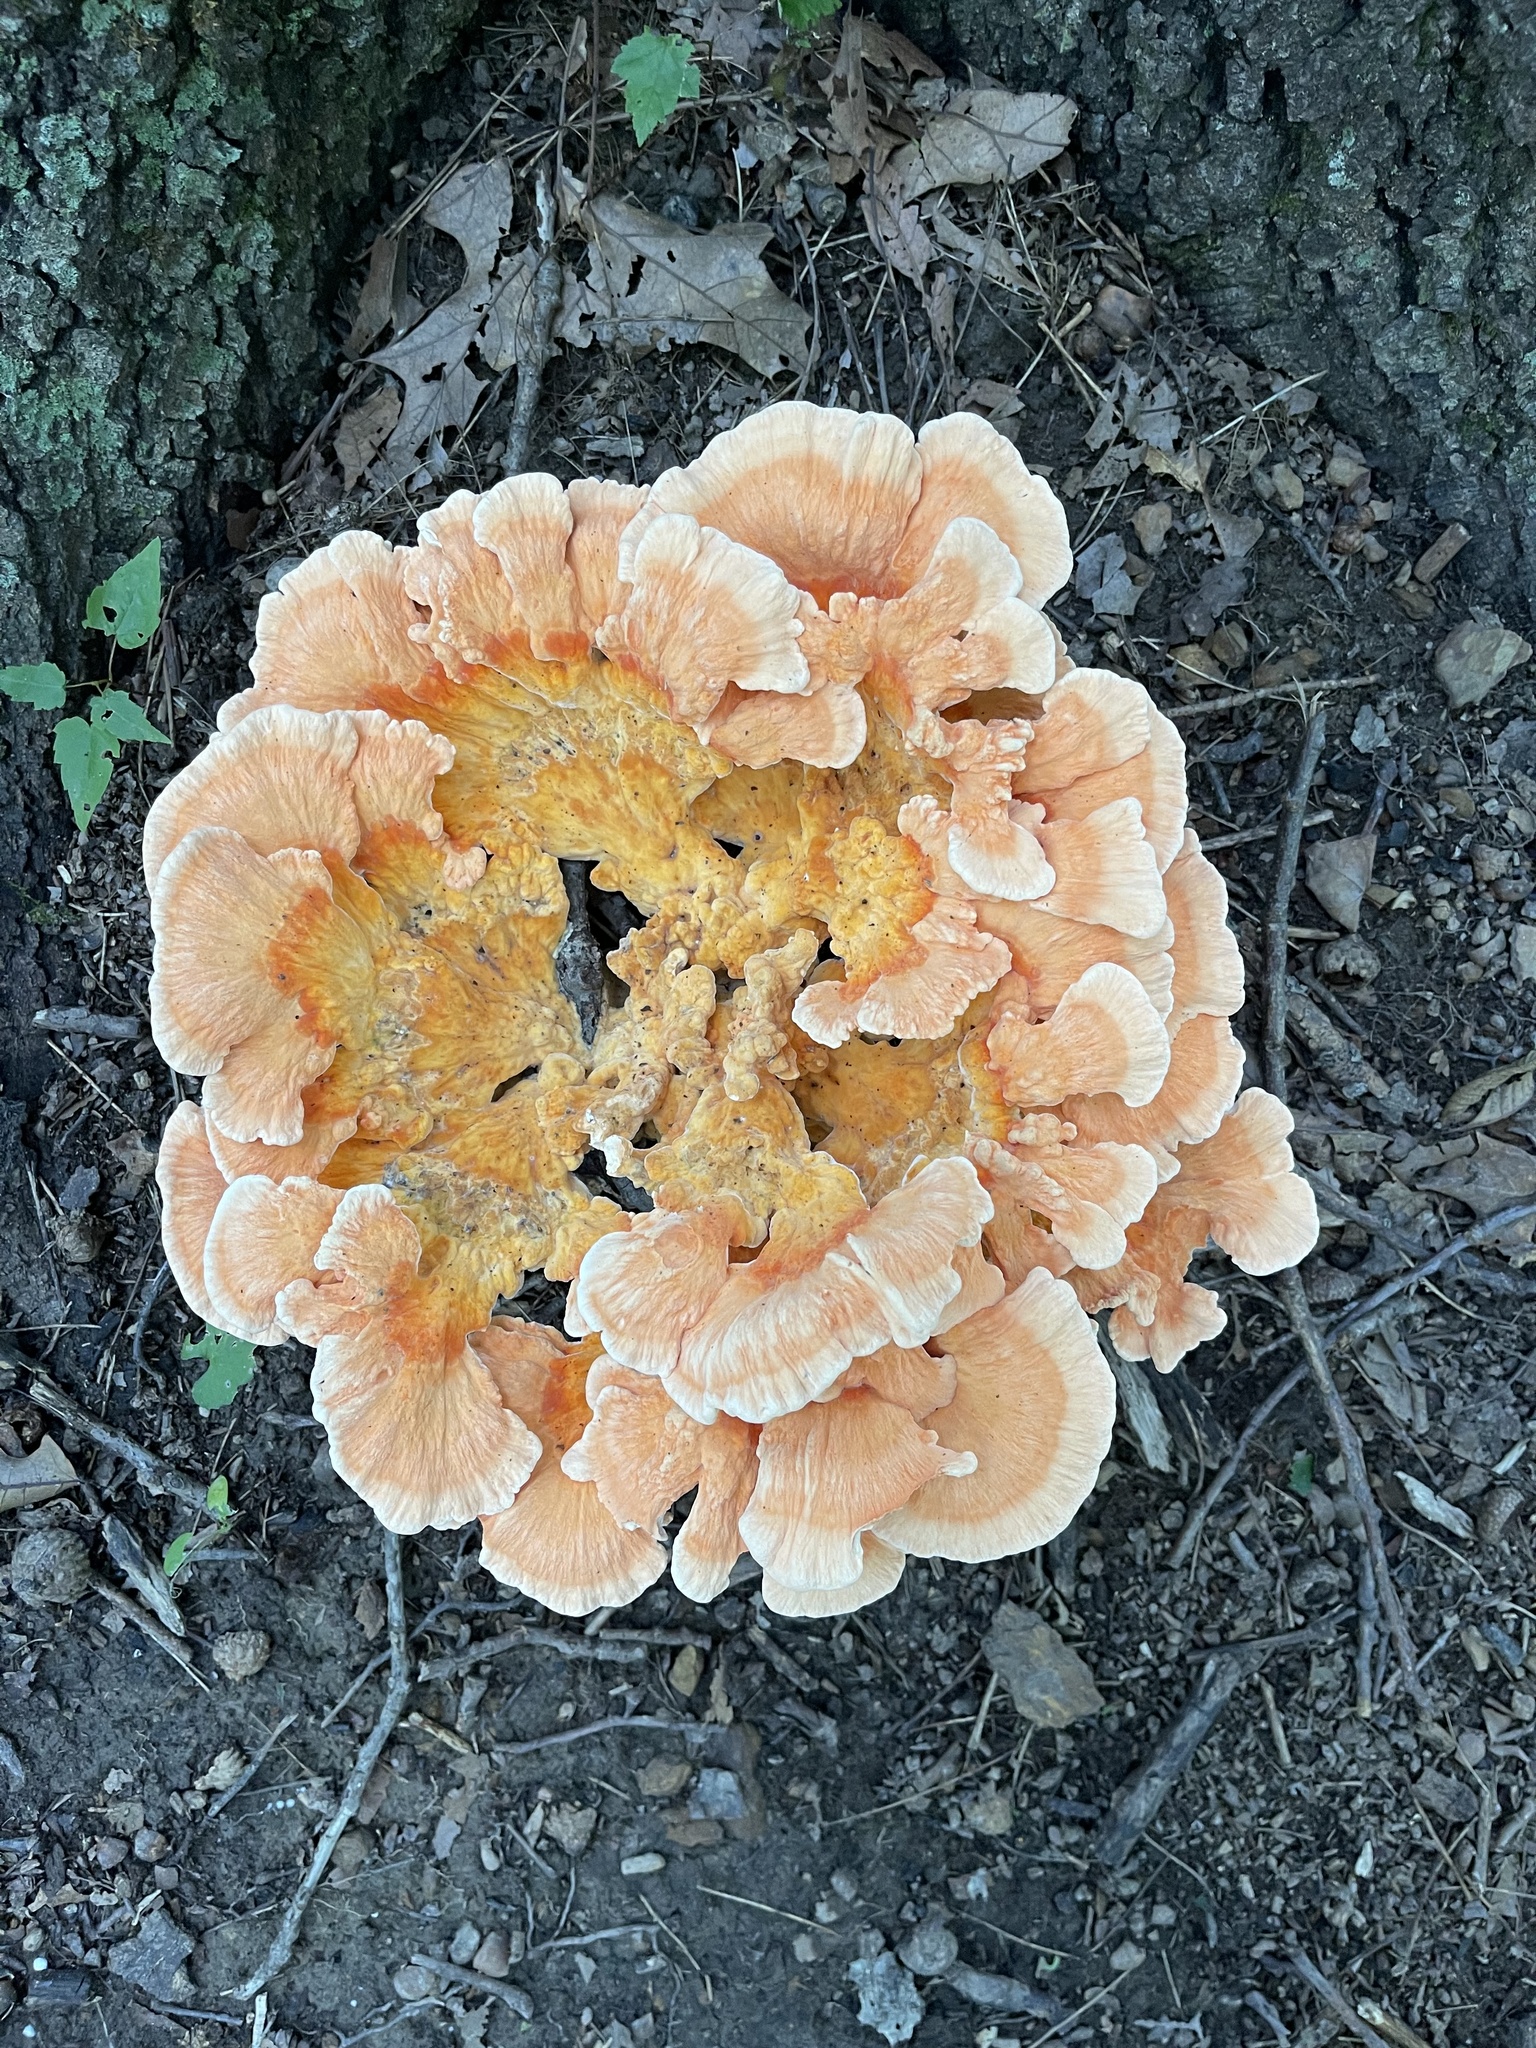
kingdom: Fungi
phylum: Basidiomycota
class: Agaricomycetes
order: Polyporales
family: Laetiporaceae
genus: Laetiporus
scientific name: Laetiporus sulphureus
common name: Chicken of the woods
